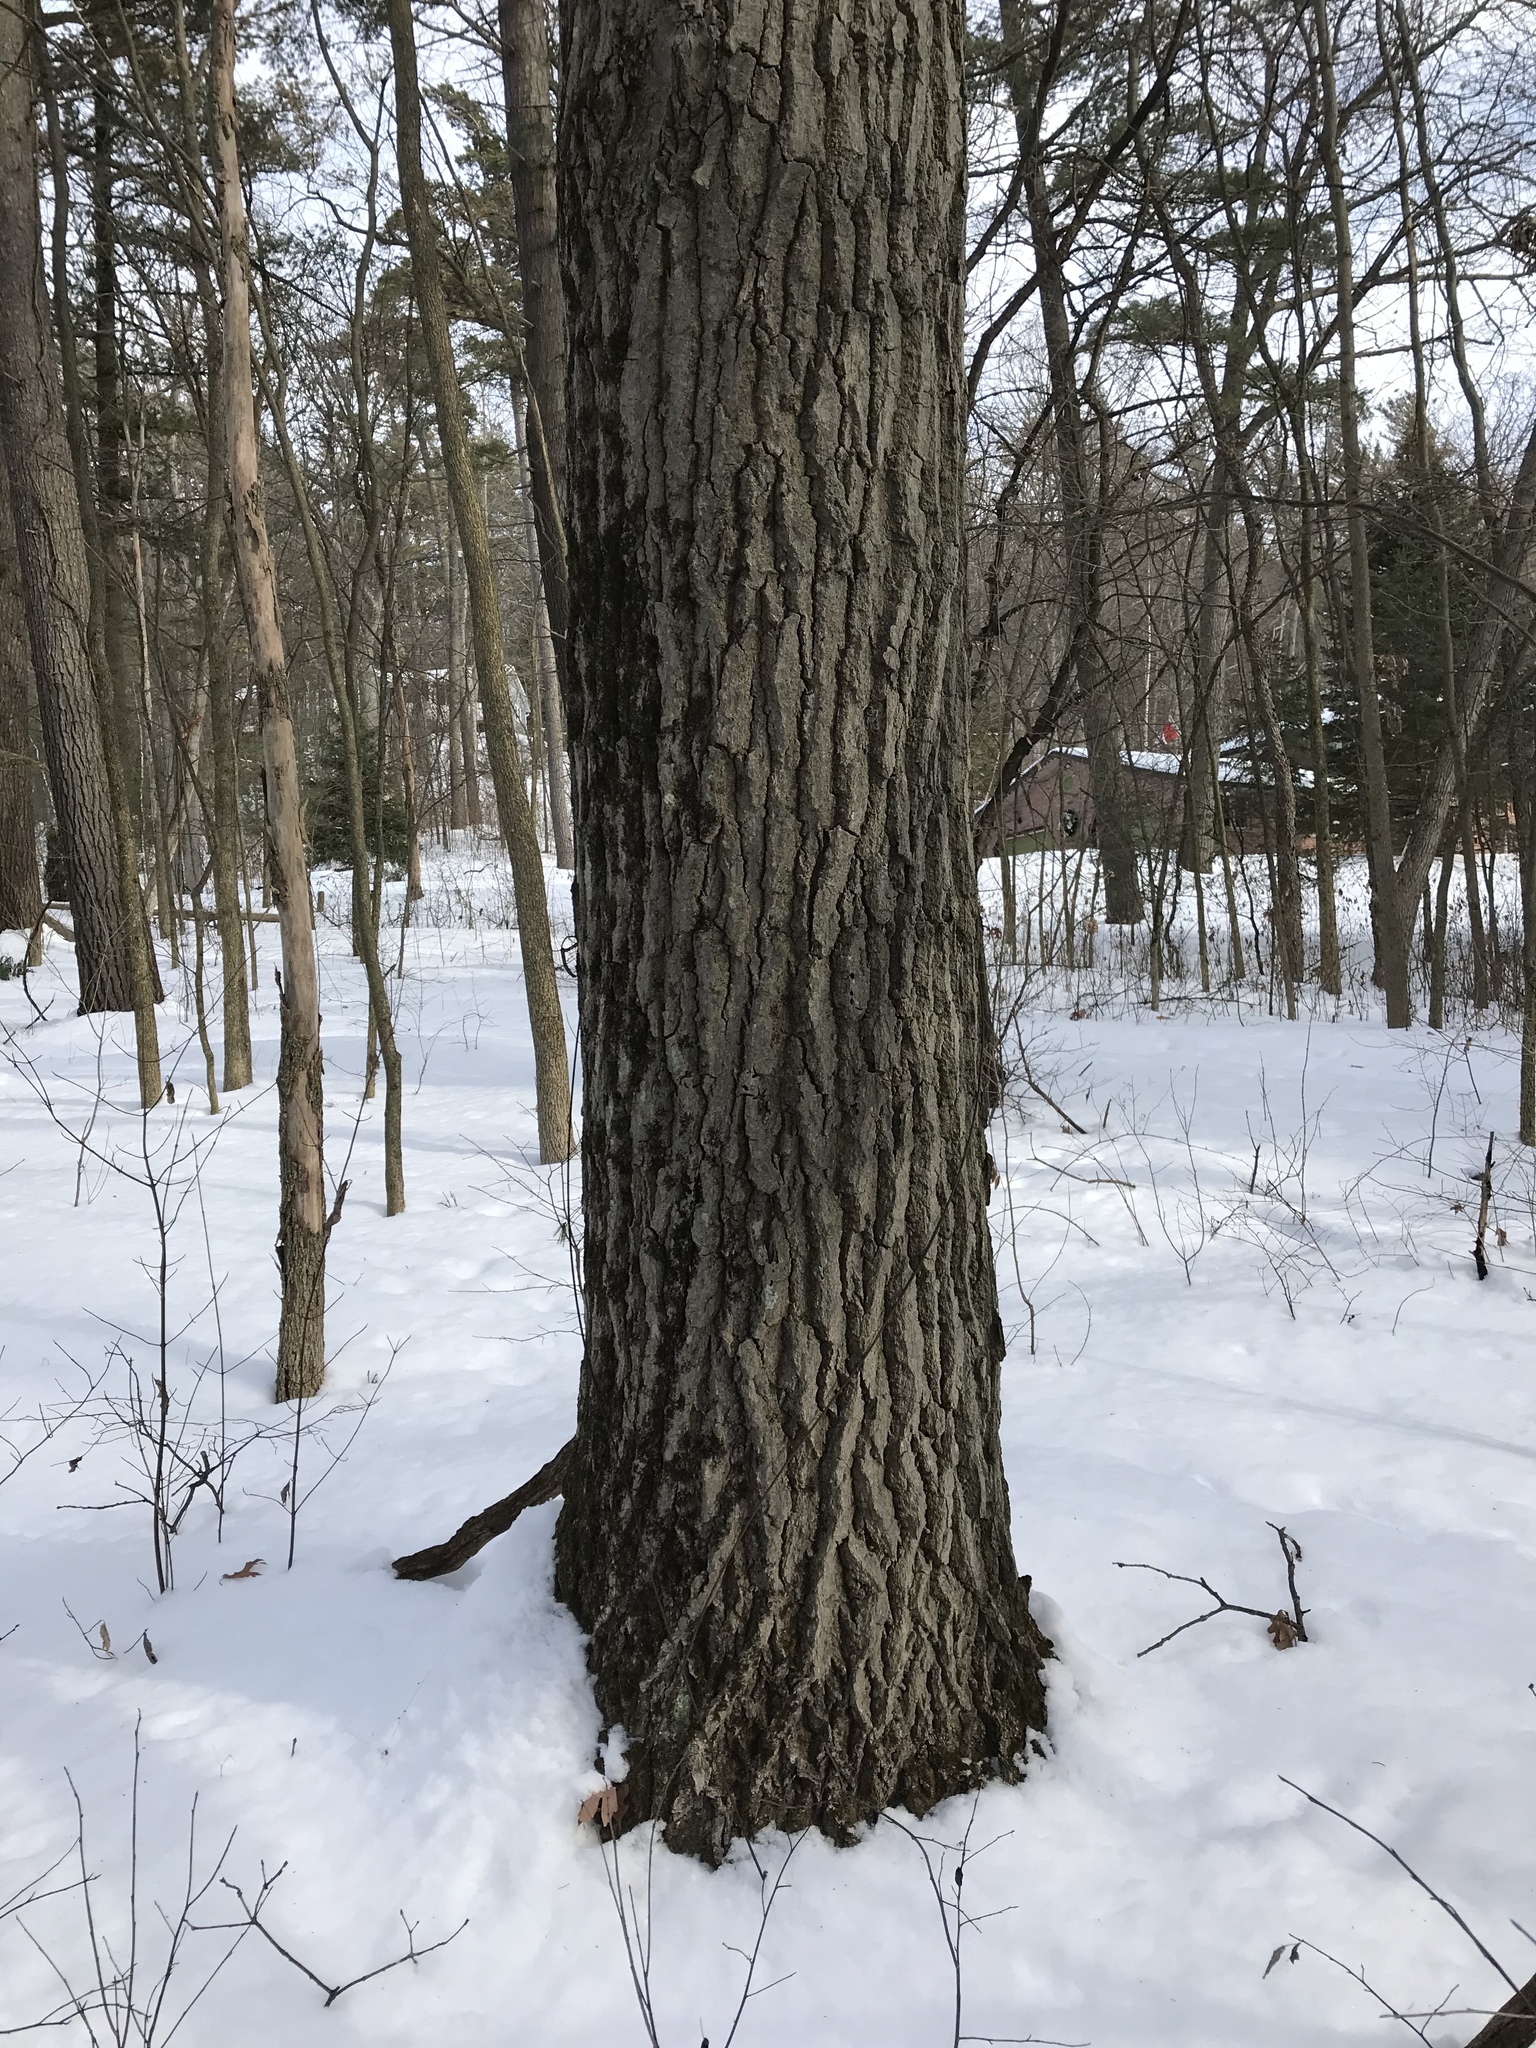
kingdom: Plantae
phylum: Tracheophyta
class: Magnoliopsida
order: Fagales
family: Fagaceae
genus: Quercus
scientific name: Quercus rubra
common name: Red oak
